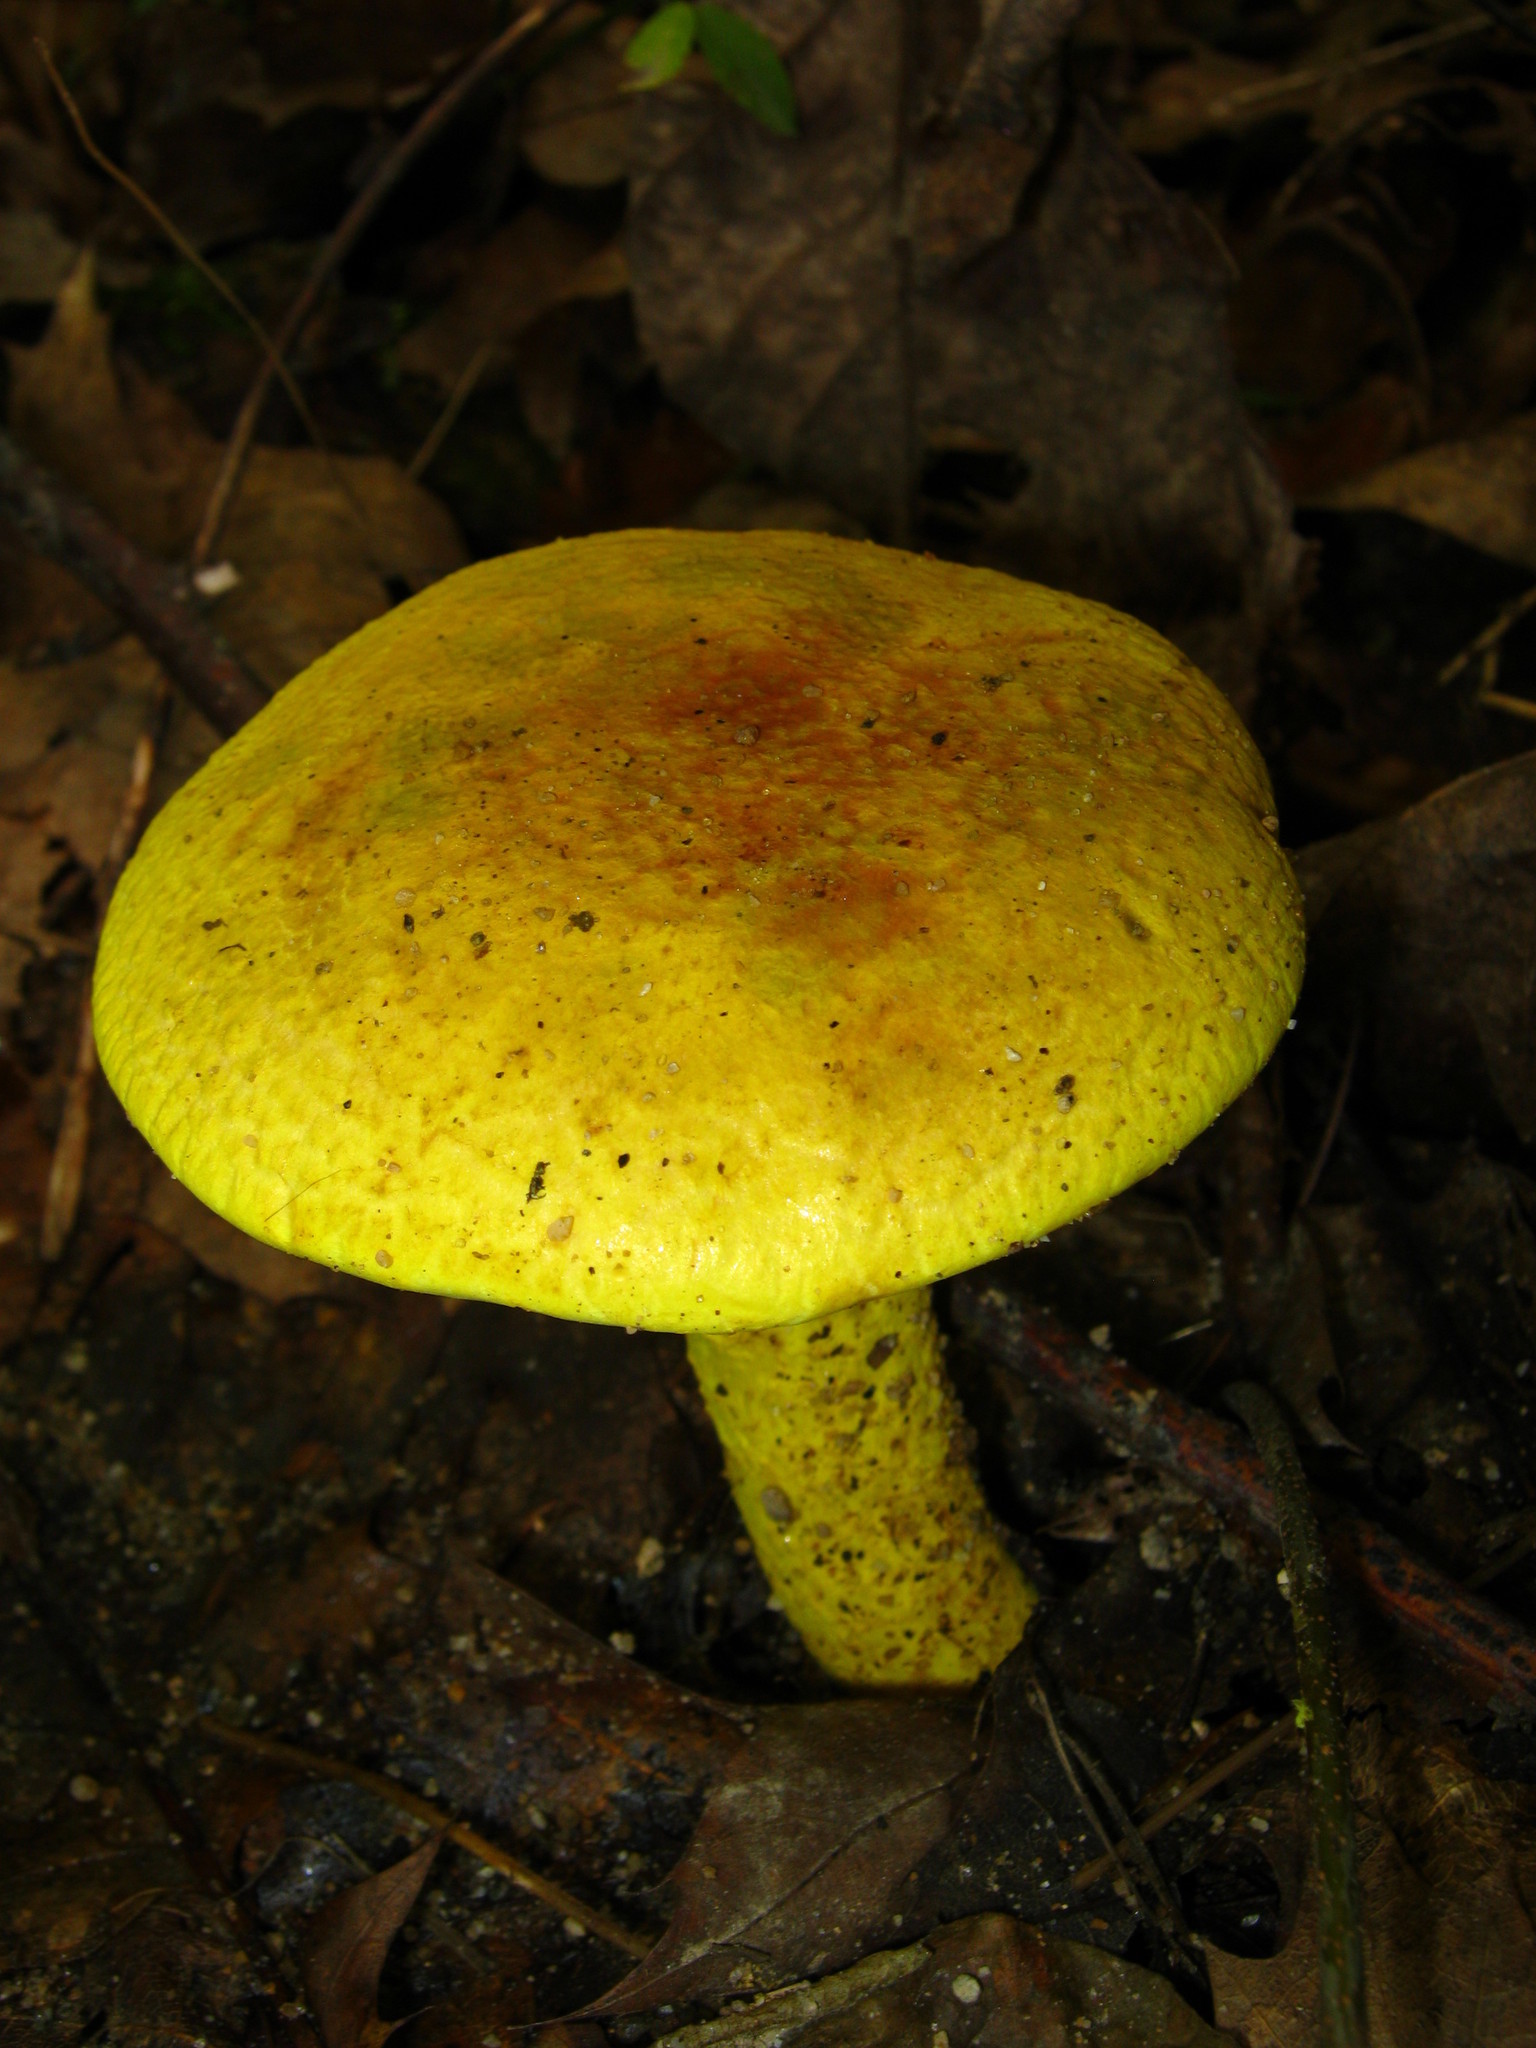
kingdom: Fungi
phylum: Basidiomycota
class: Agaricomycetes
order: Boletales
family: Boletaceae
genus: Pulveroboletus
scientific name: Pulveroboletus ravenelii
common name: Powdery sulfur bolete
